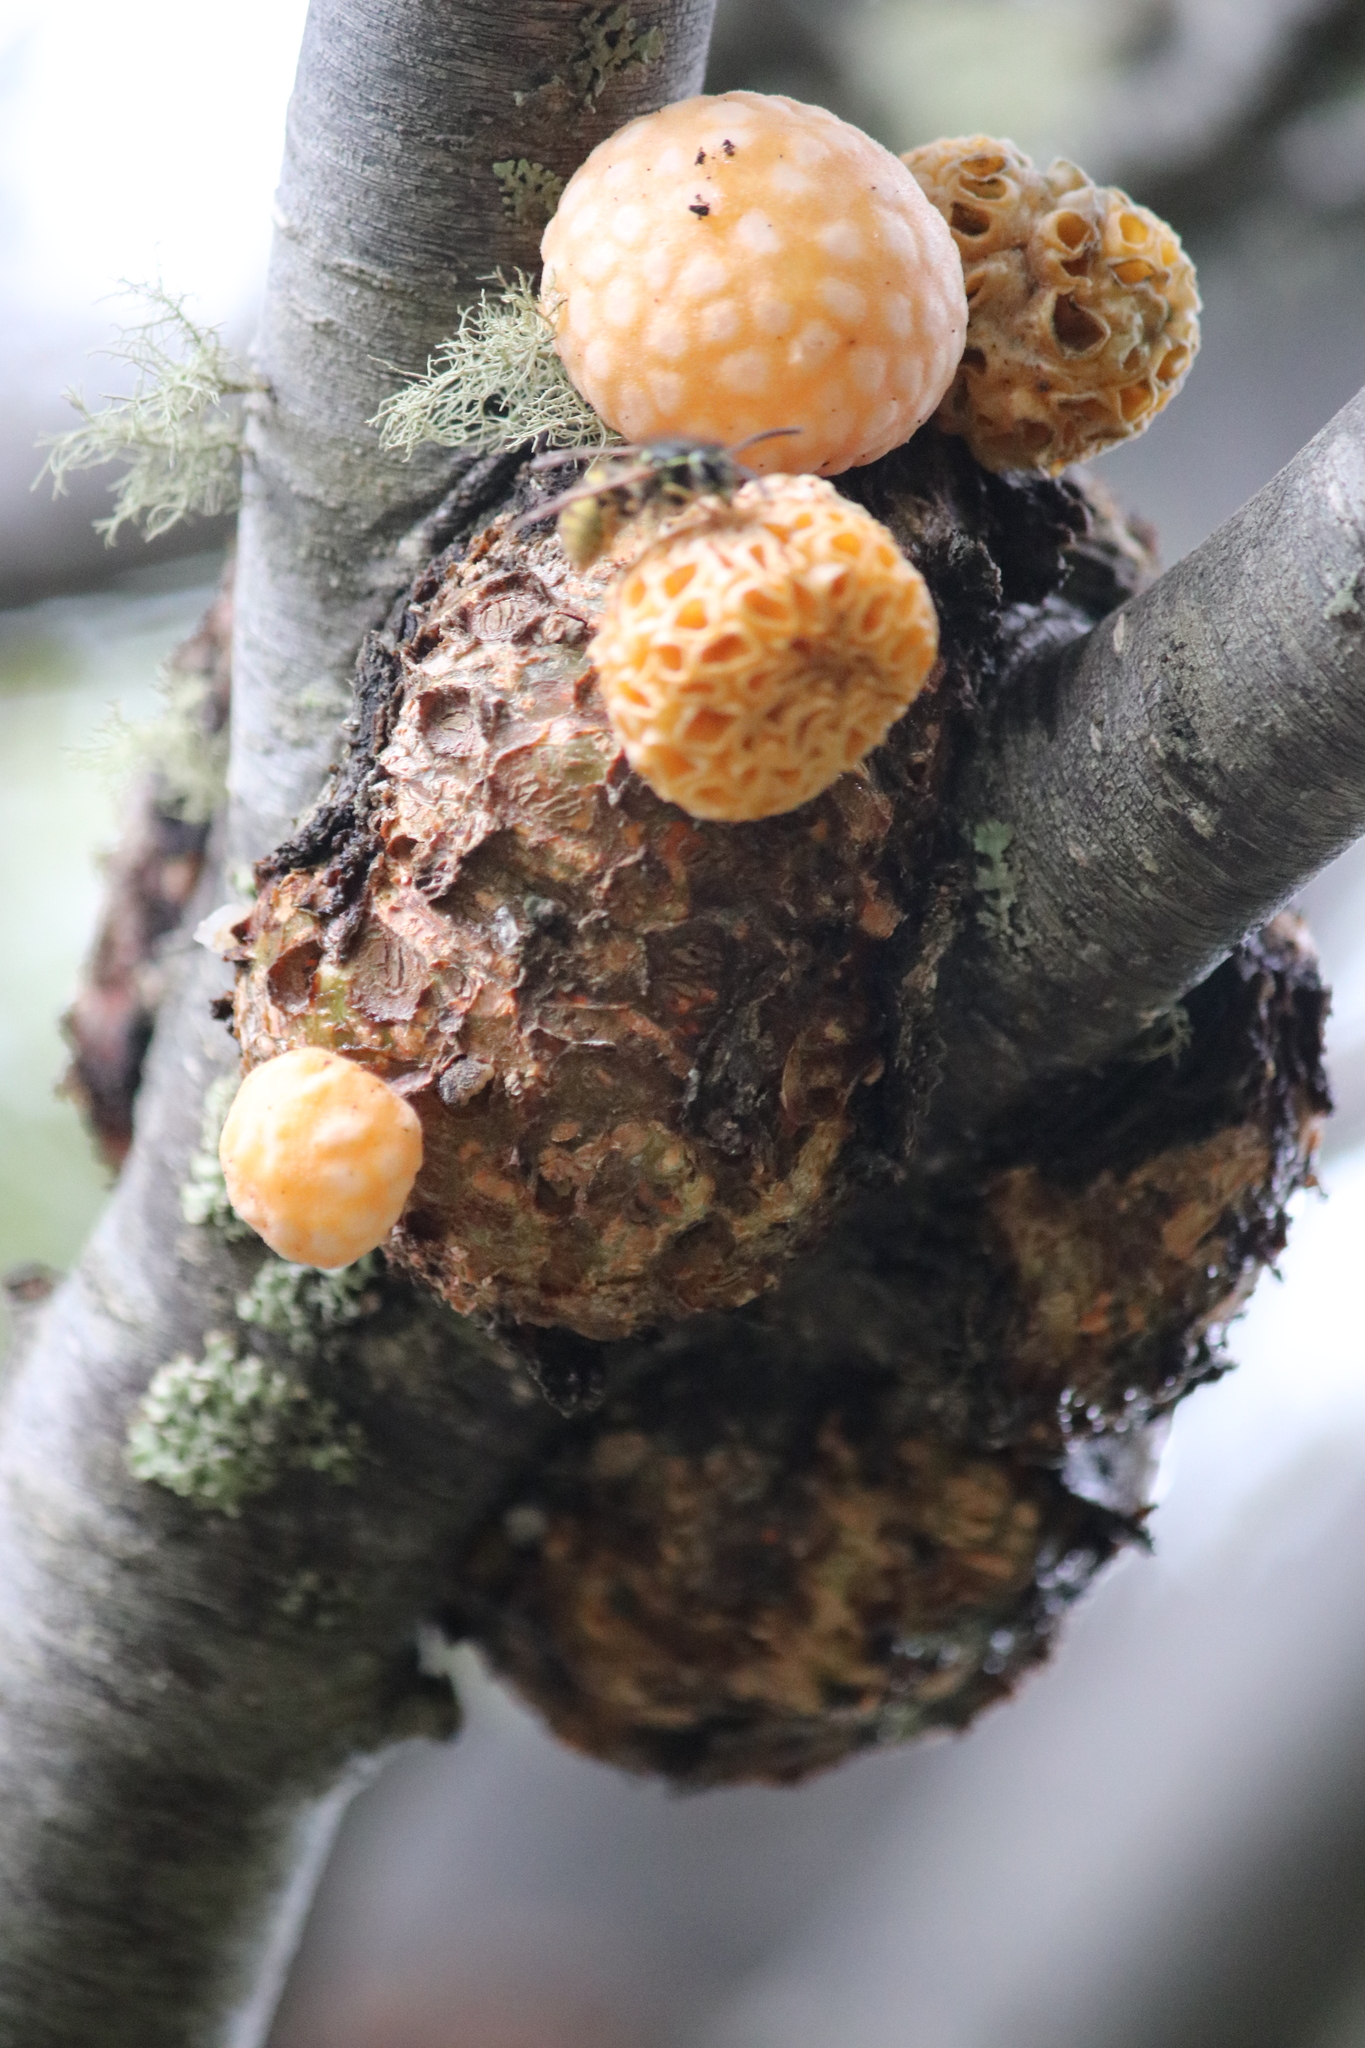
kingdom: Fungi
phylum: Ascomycota
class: Leotiomycetes
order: Cyttariales
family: Cyttariaceae
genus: Cyttaria
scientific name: Cyttaria hariotii
